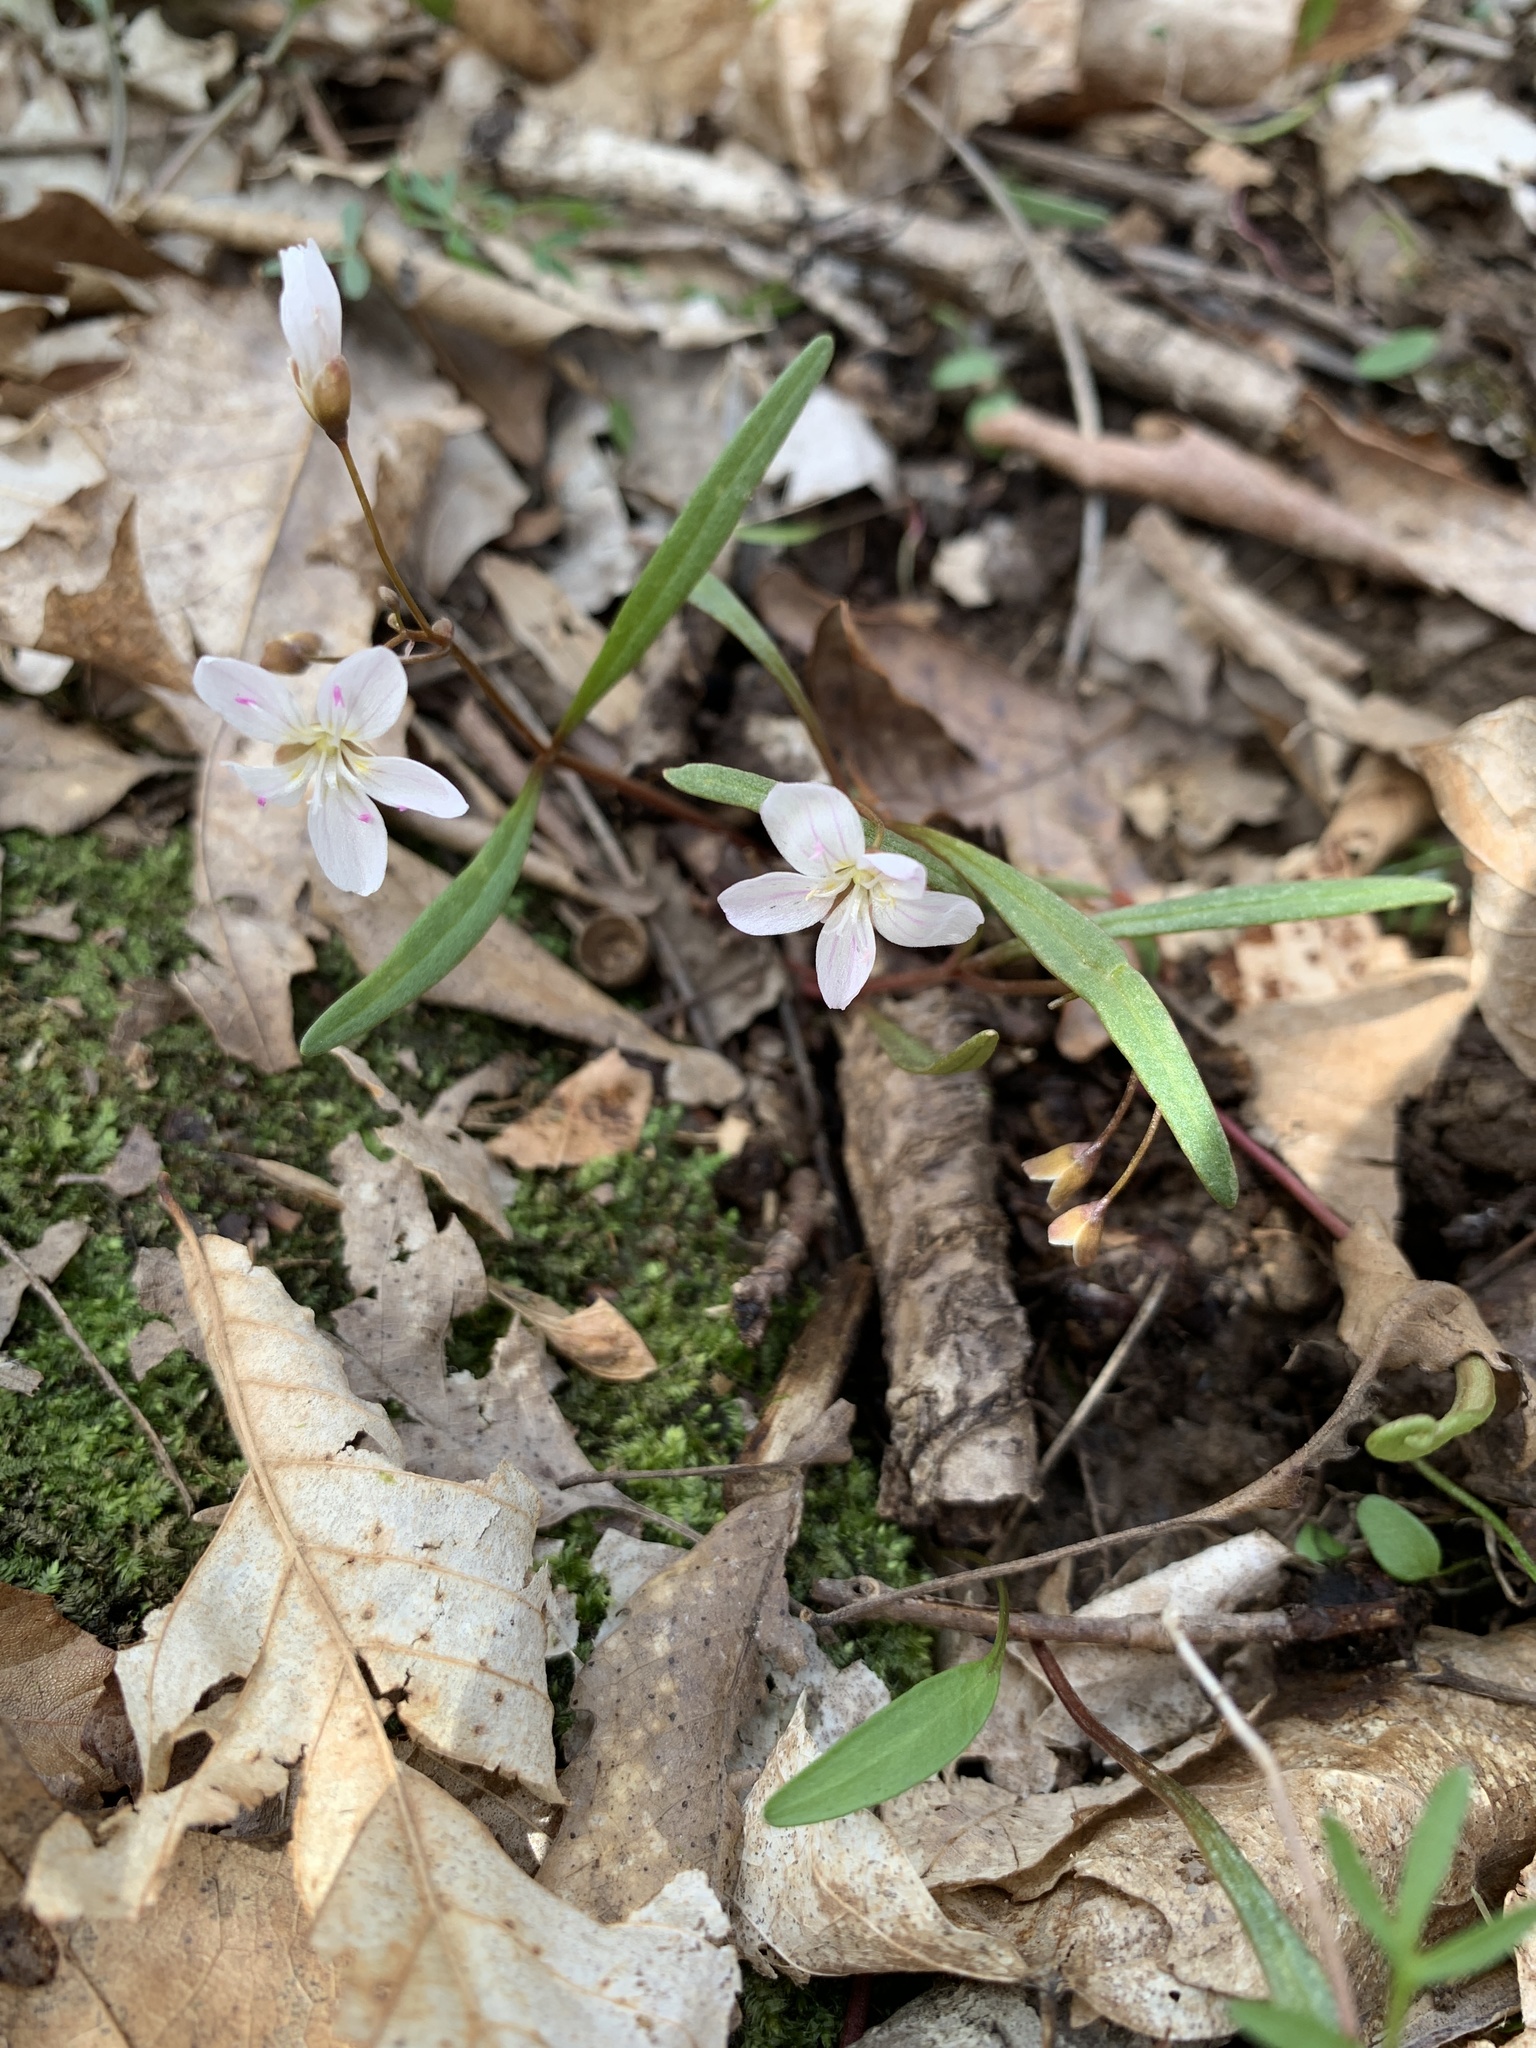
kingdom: Plantae
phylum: Tracheophyta
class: Magnoliopsida
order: Caryophyllales
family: Montiaceae
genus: Claytonia
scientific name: Claytonia virginica
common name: Virginia springbeauty
